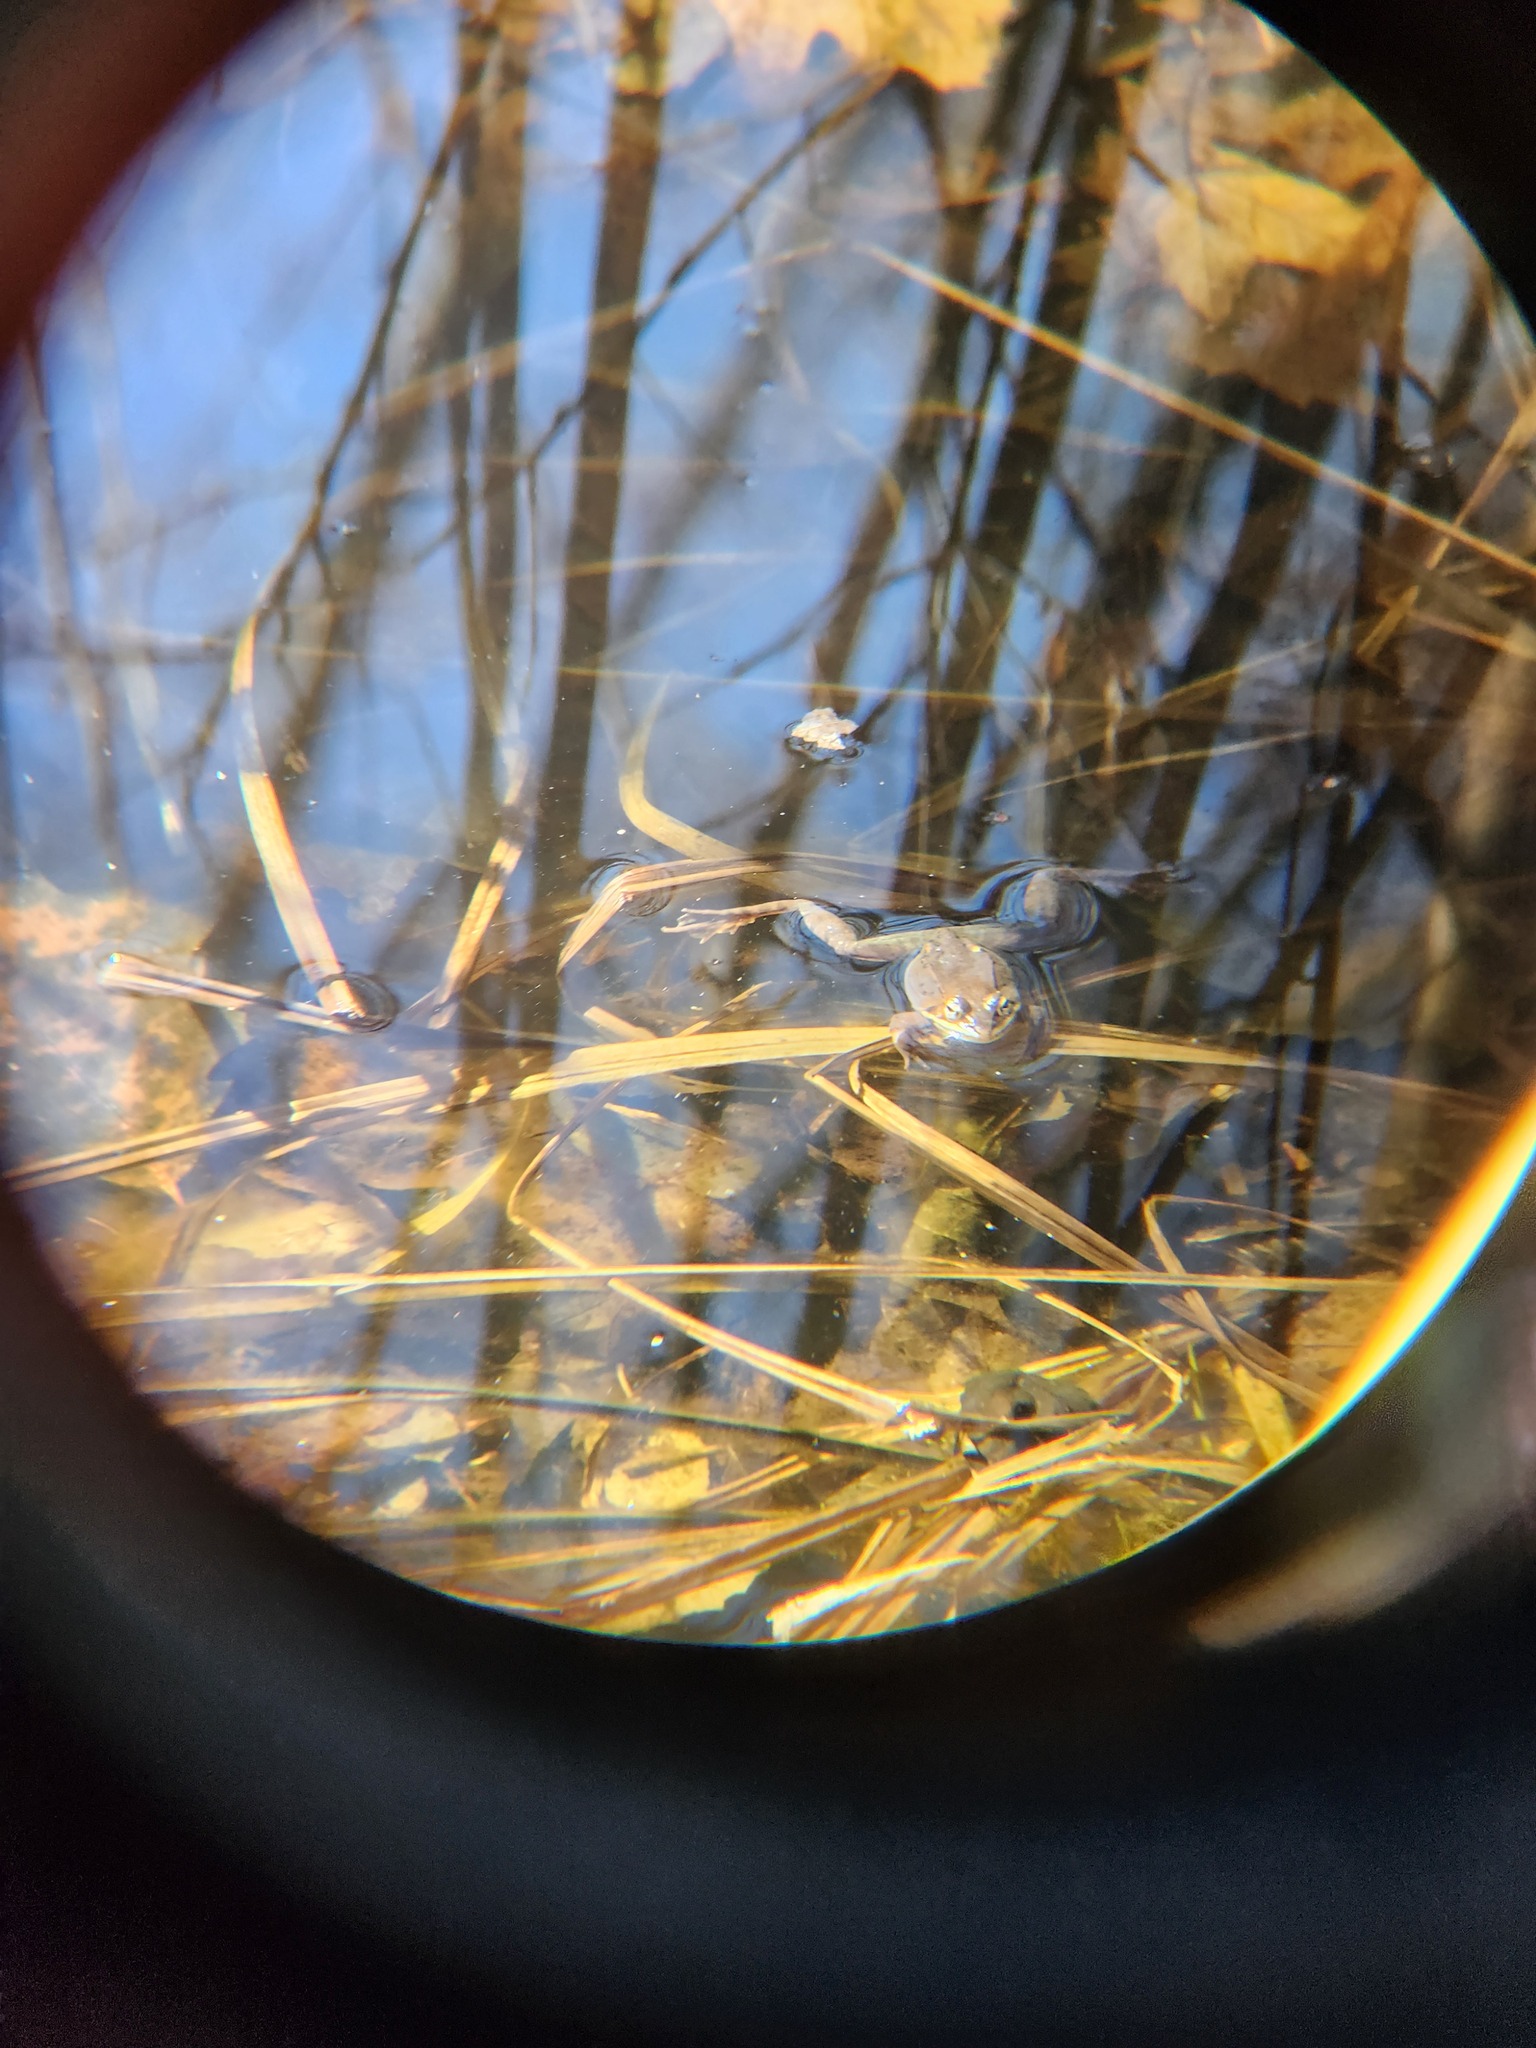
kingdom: Animalia
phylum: Chordata
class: Amphibia
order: Anura
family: Ranidae
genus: Lithobates
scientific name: Lithobates sylvaticus
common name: Wood frog
